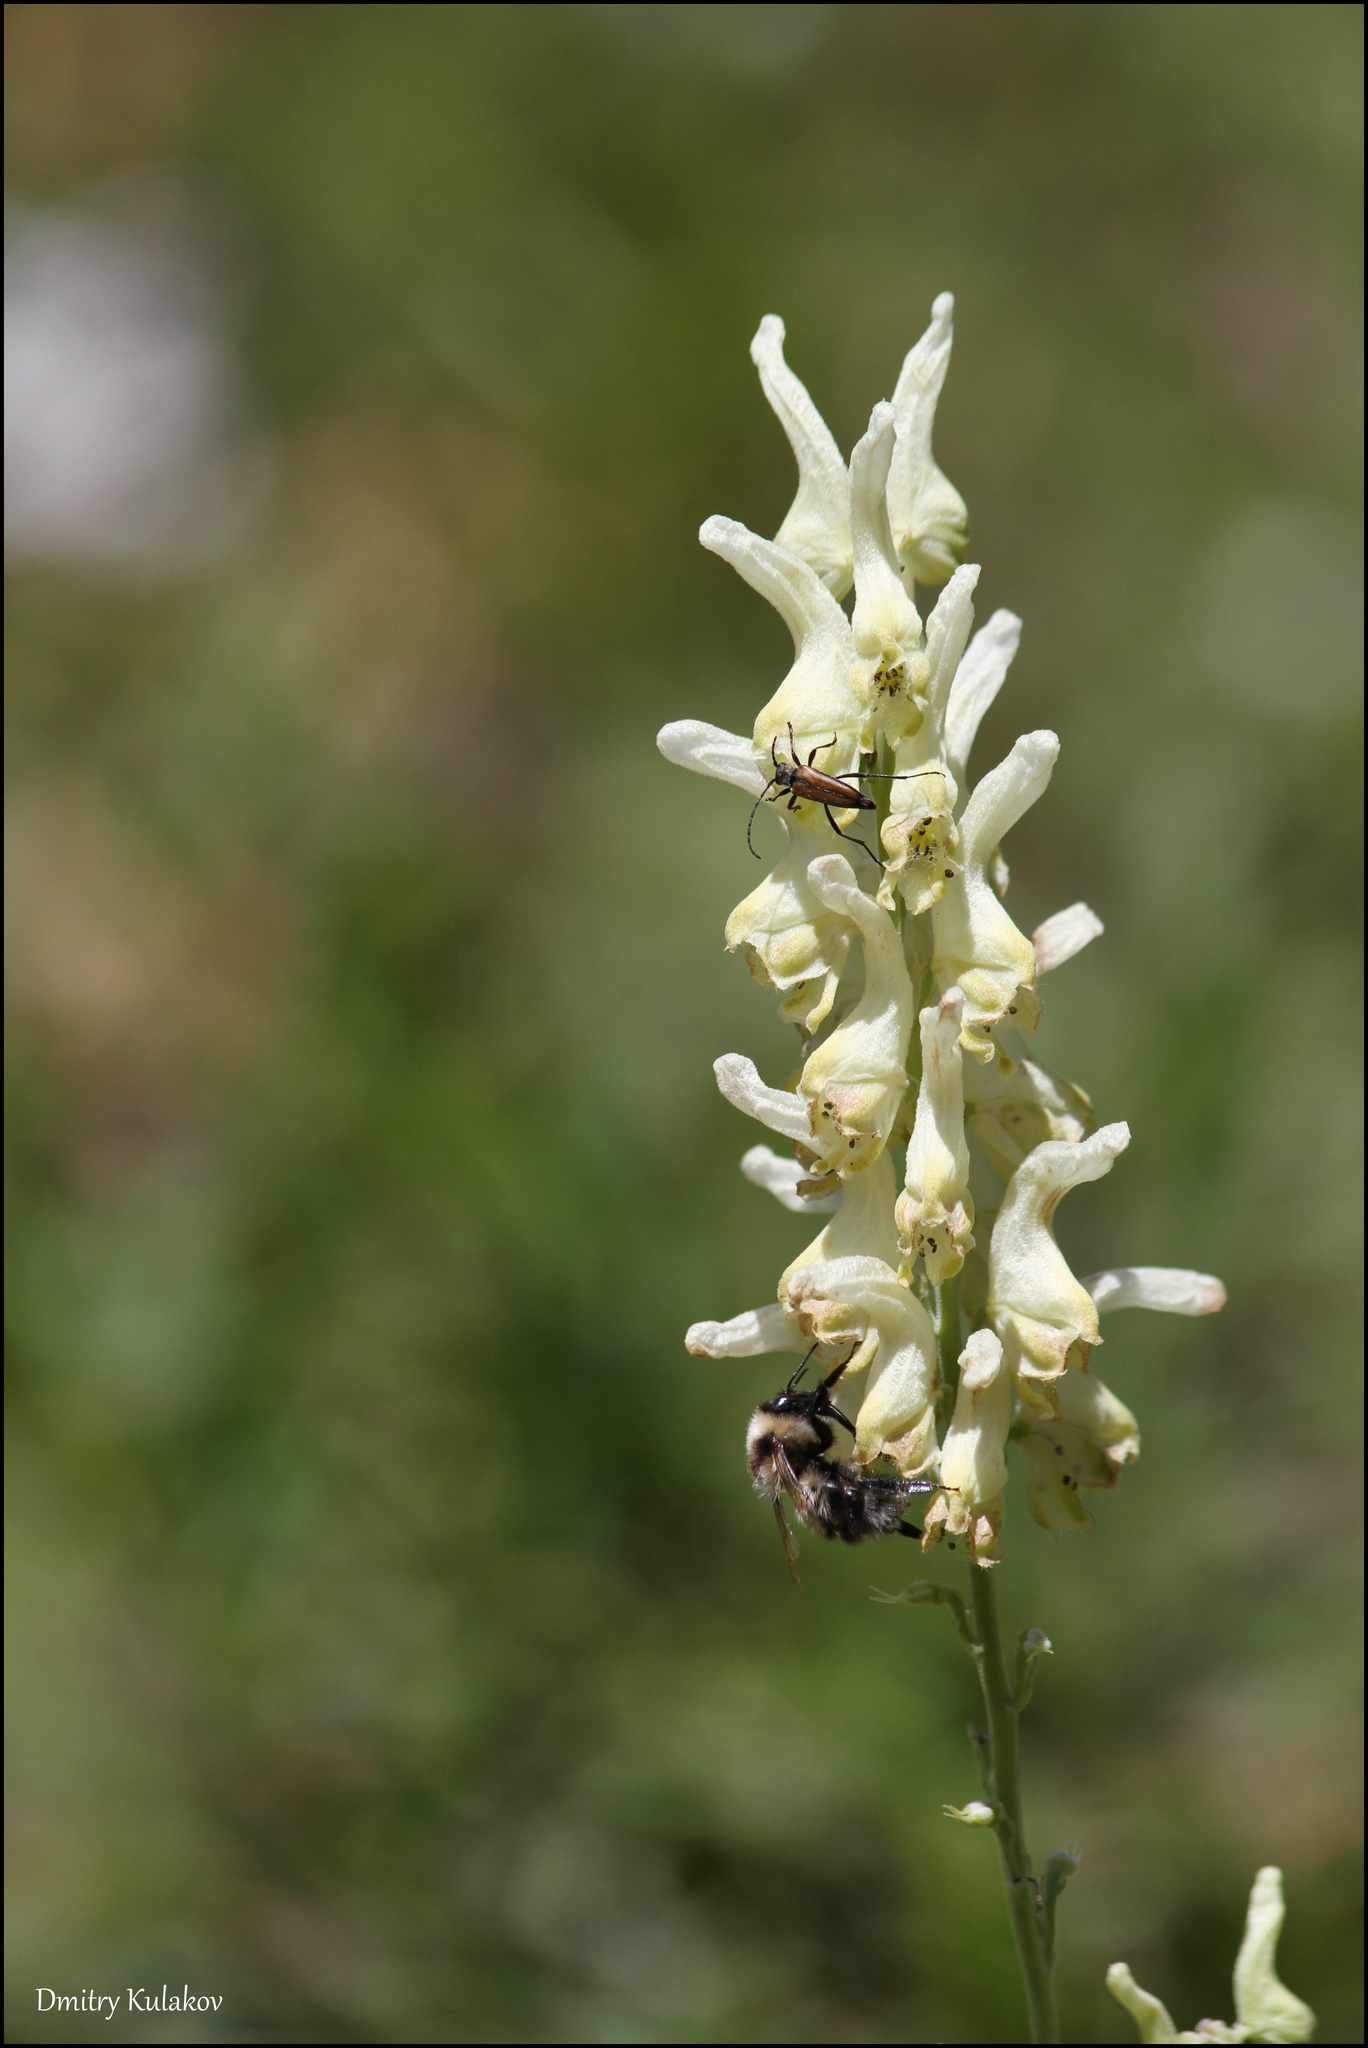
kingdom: Plantae
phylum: Tracheophyta
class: Magnoliopsida
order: Ranunculales
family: Ranunculaceae
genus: Aconitum
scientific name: Aconitum barbatum
